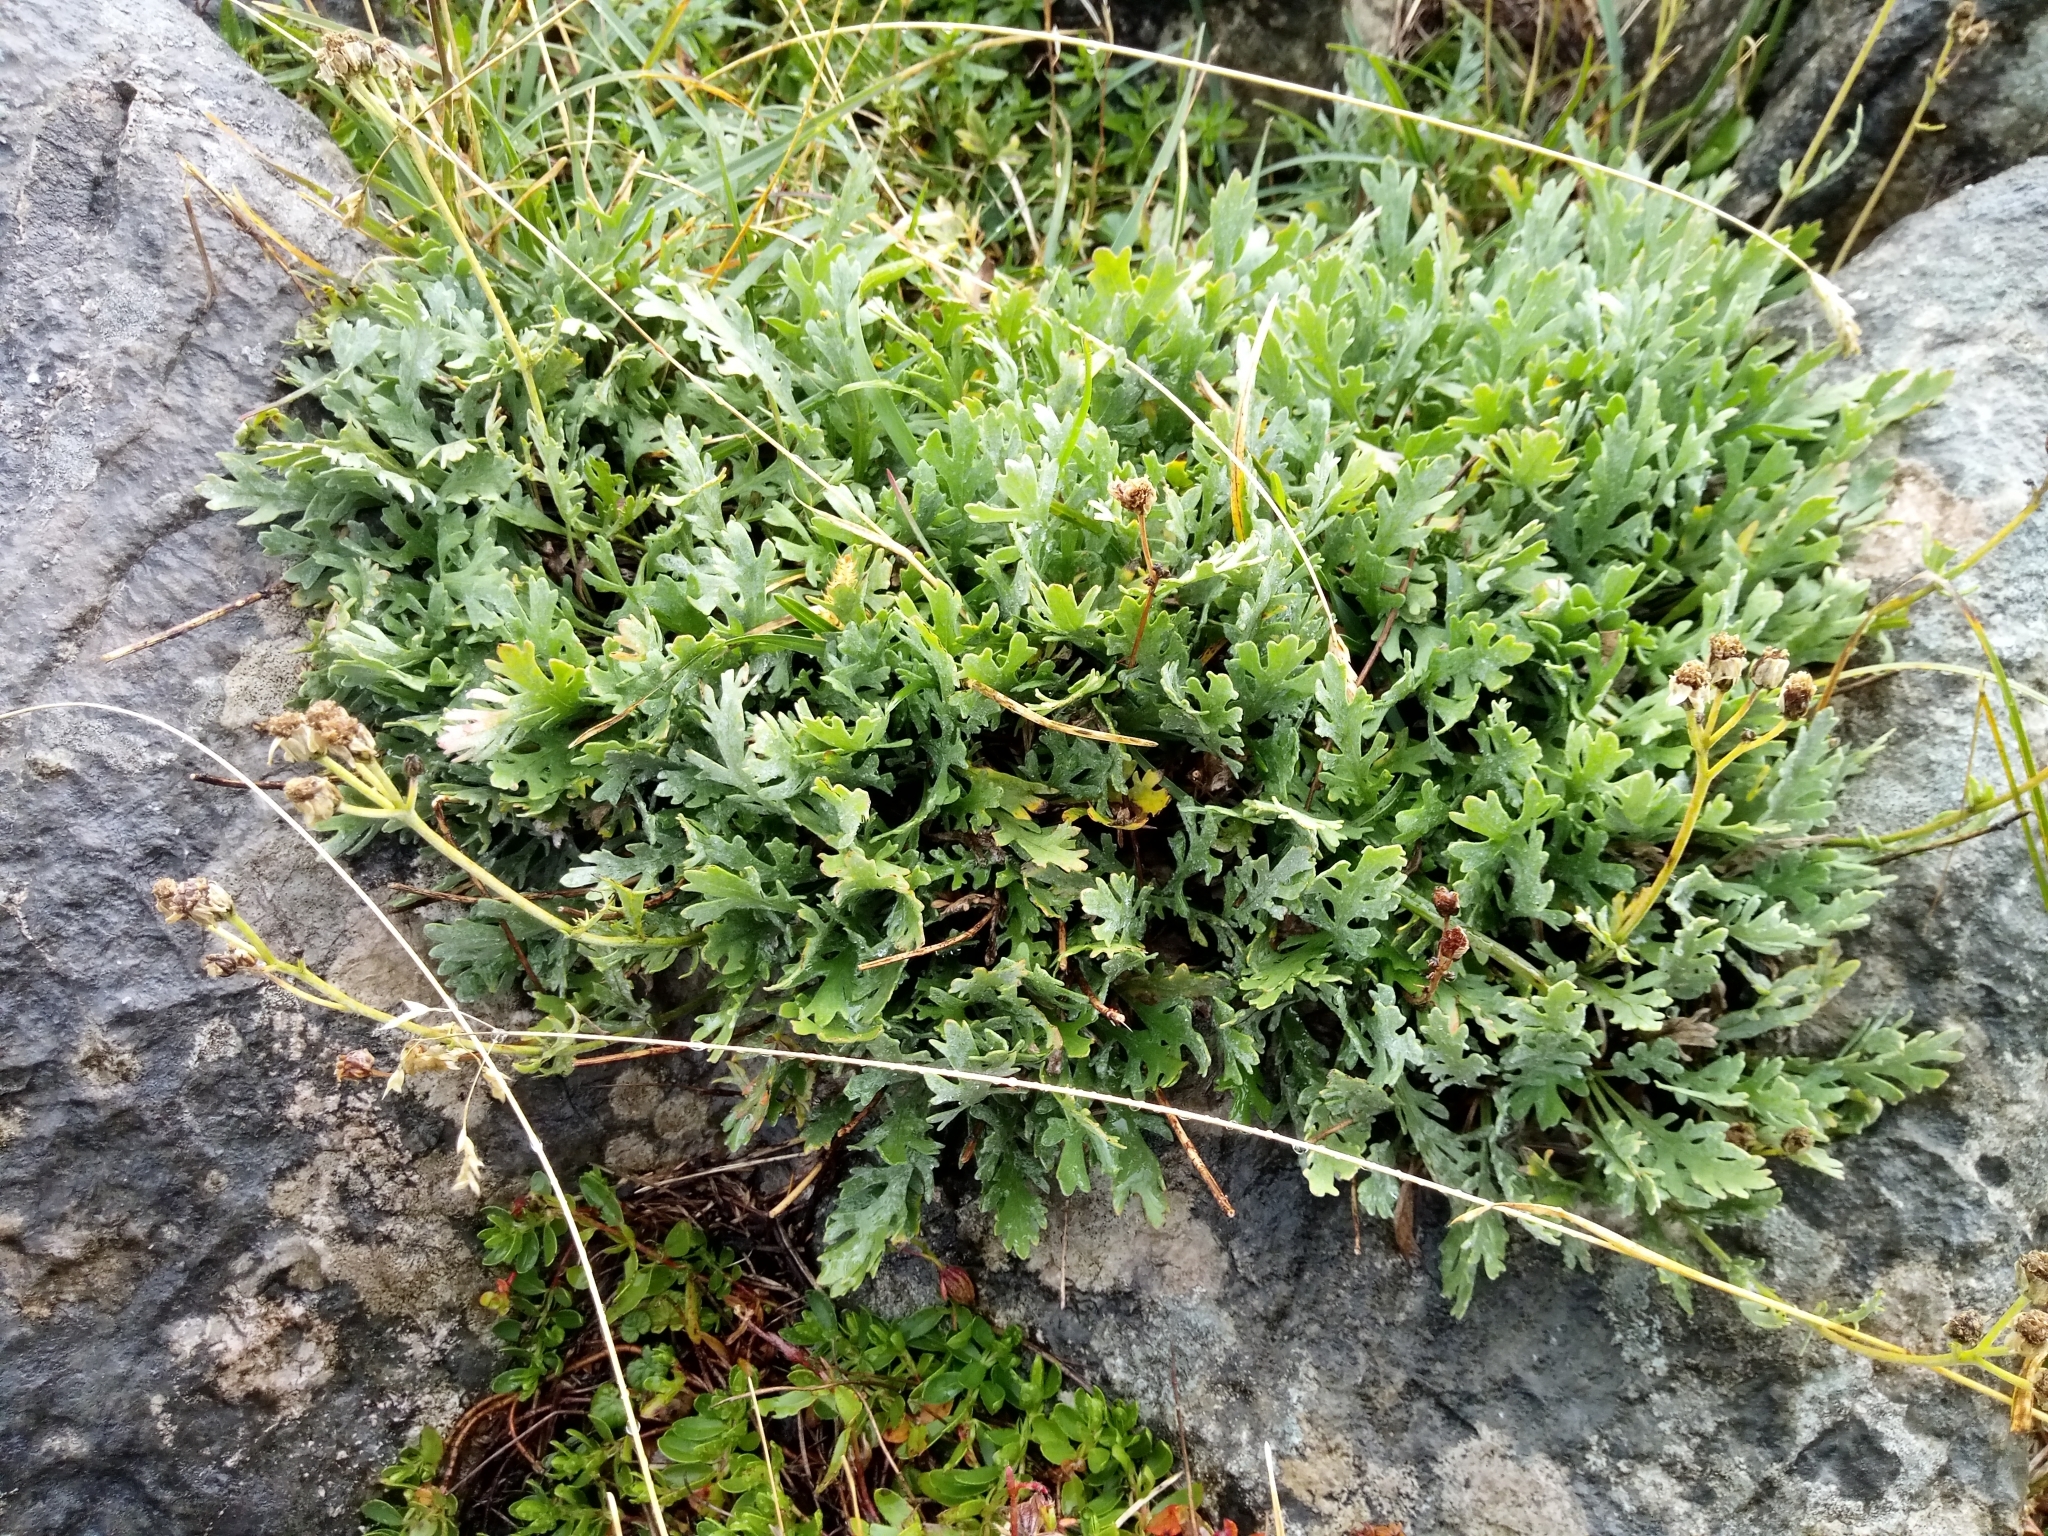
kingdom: Plantae
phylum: Tracheophyta
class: Magnoliopsida
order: Asterales
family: Asteraceae
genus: Achillea
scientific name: Achillea clavennae
